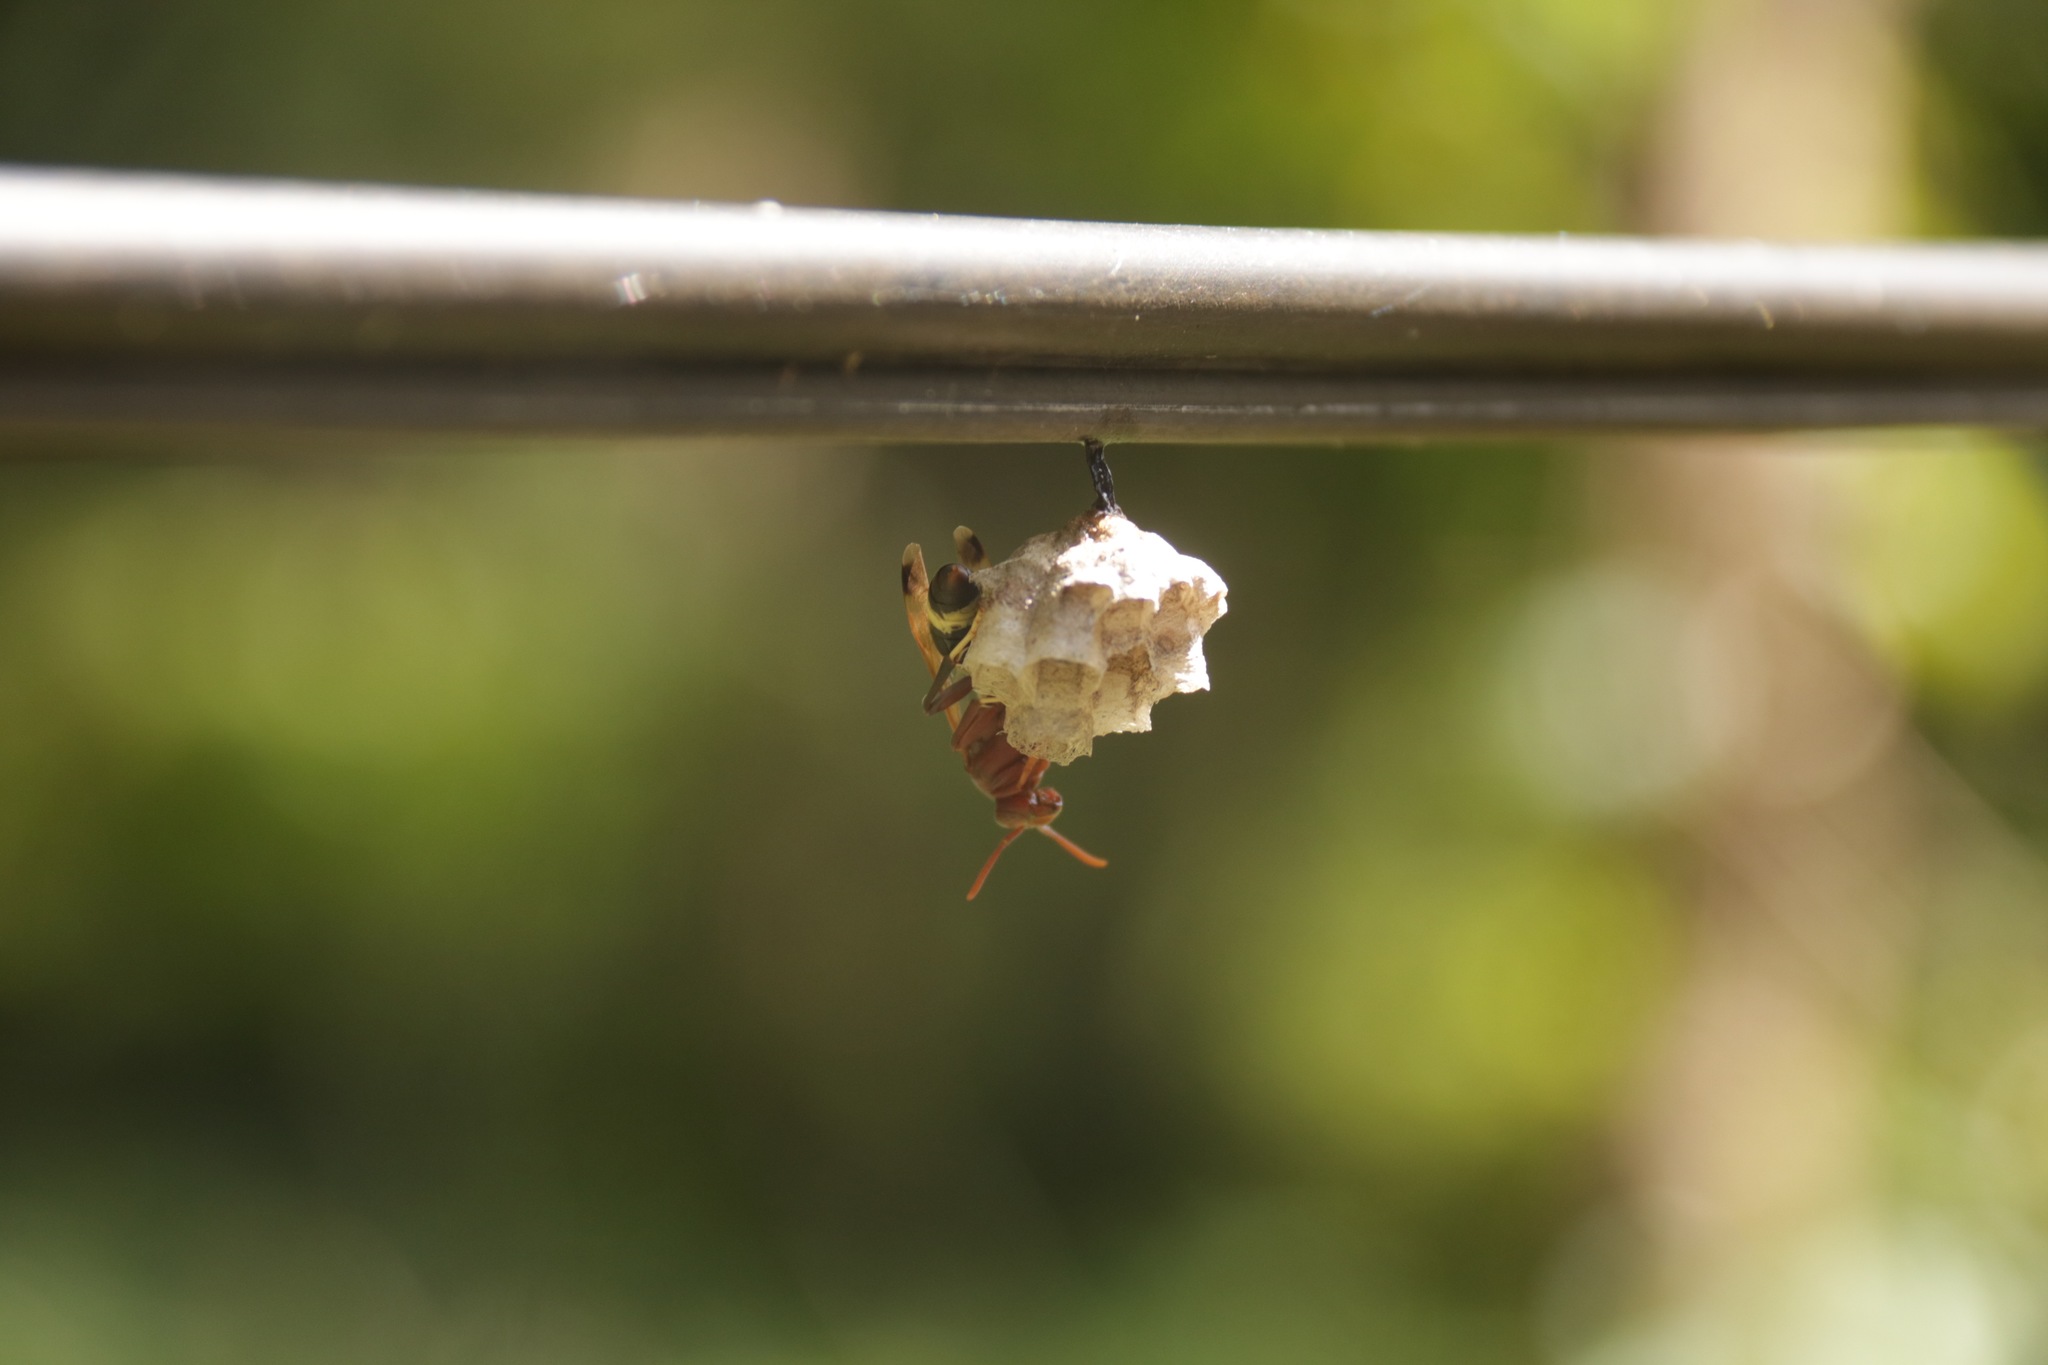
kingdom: Animalia
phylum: Arthropoda
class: Insecta
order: Hymenoptera
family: Vespidae
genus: Ropalidia
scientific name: Ropalidia marginata
